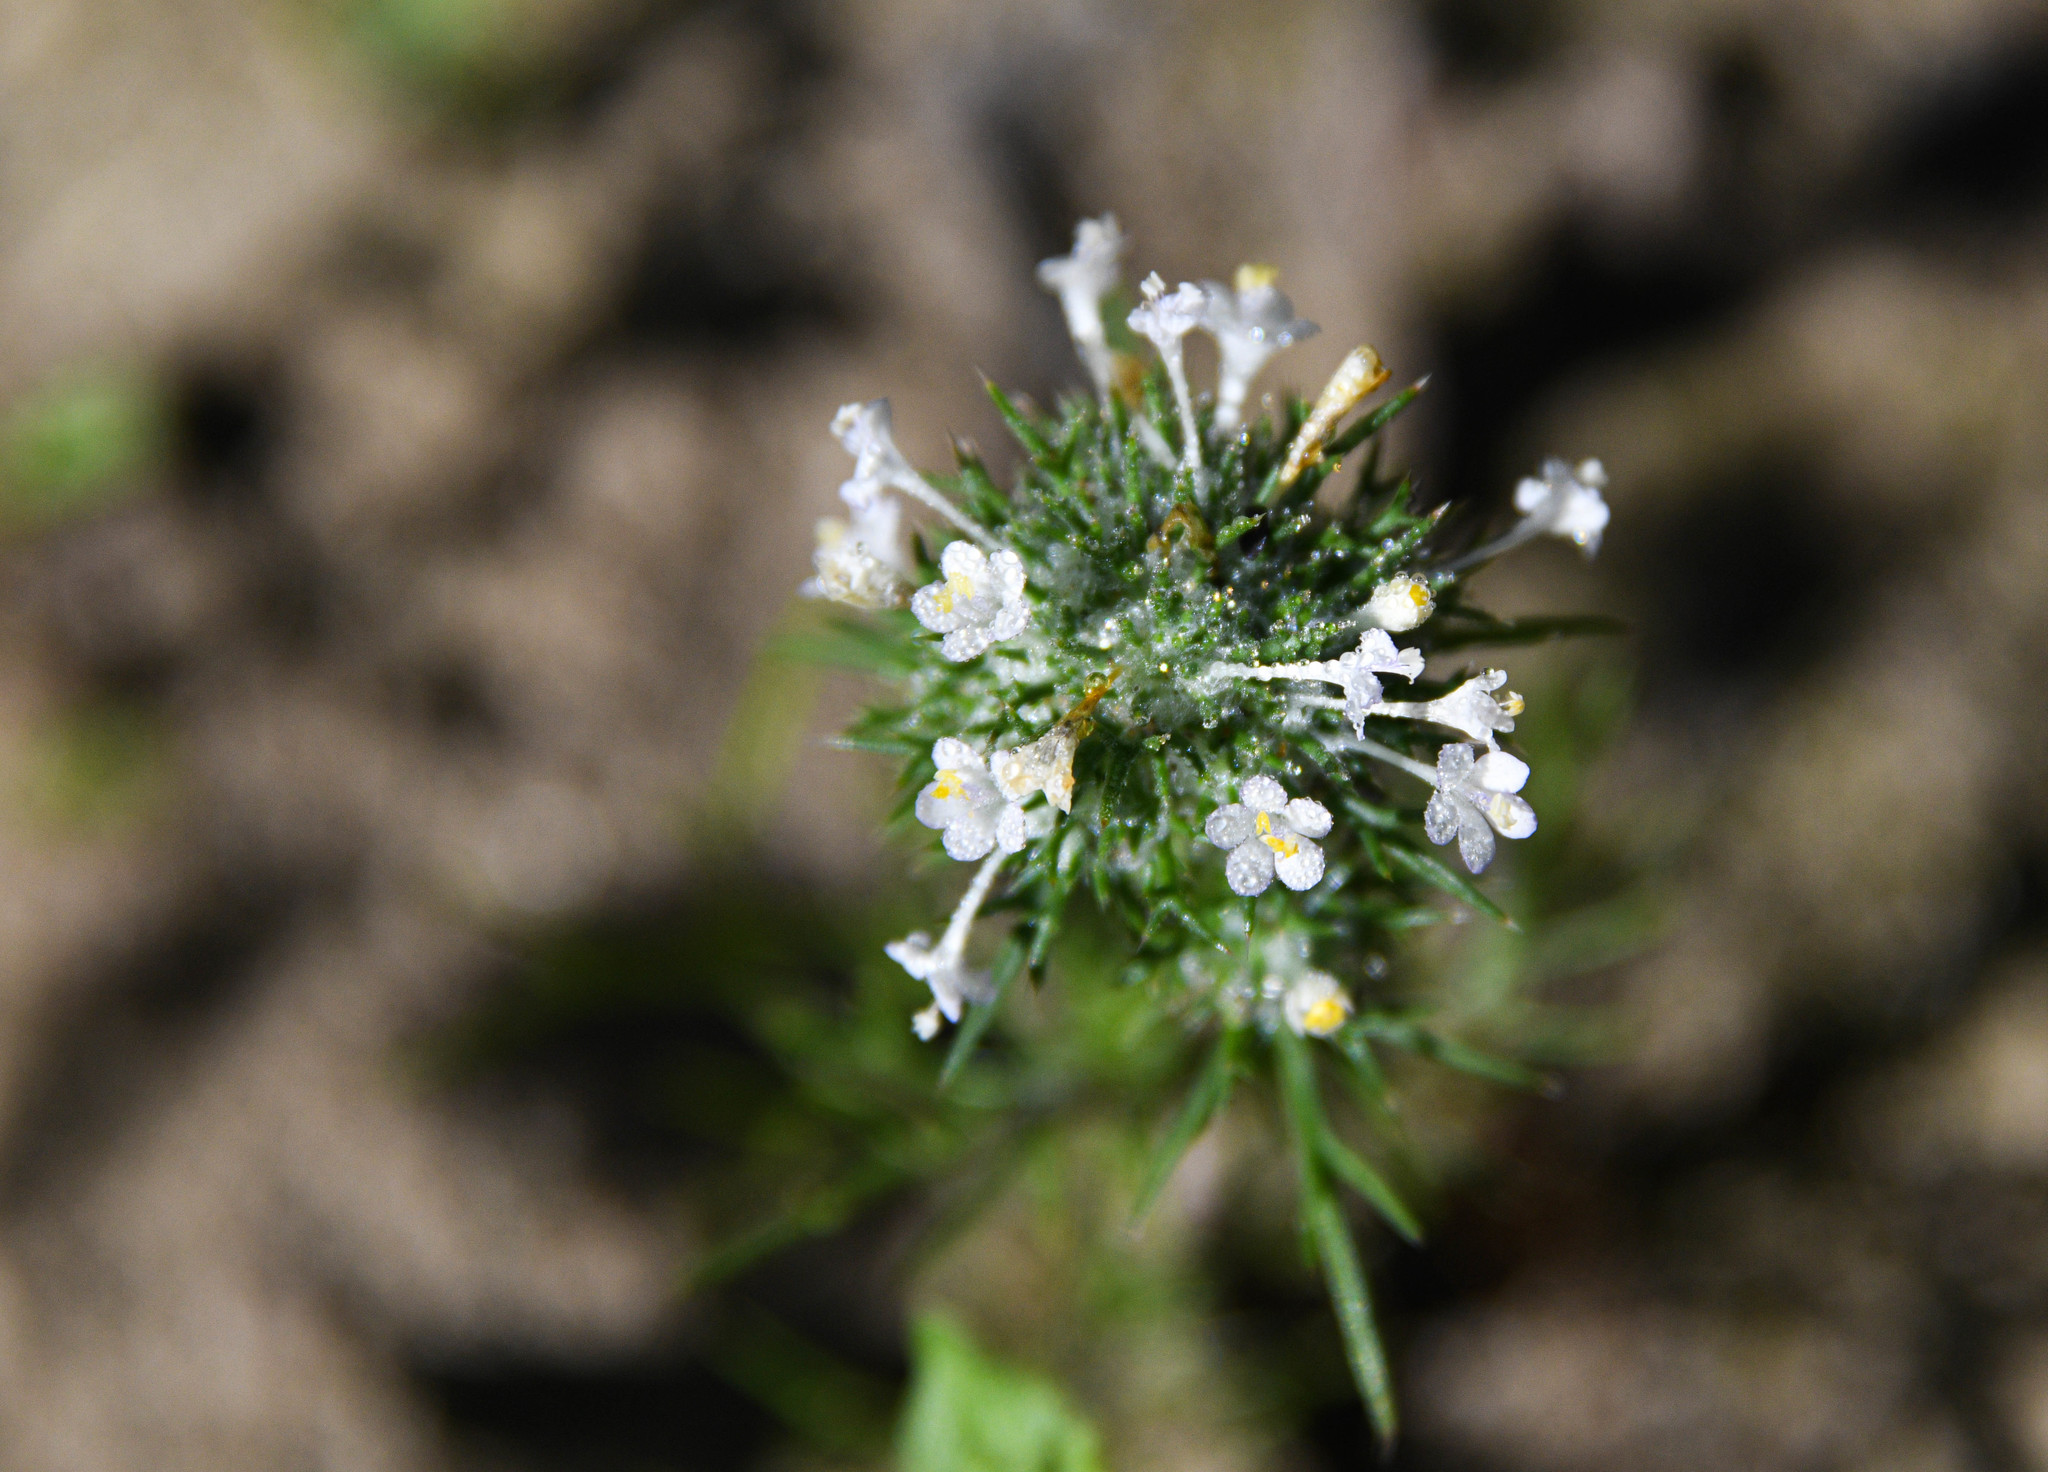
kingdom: Plantae
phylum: Tracheophyta
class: Magnoliopsida
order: Ericales
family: Polemoniaceae
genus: Navarretia
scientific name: Navarretia intertexta
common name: Needle-leaved navarretia
